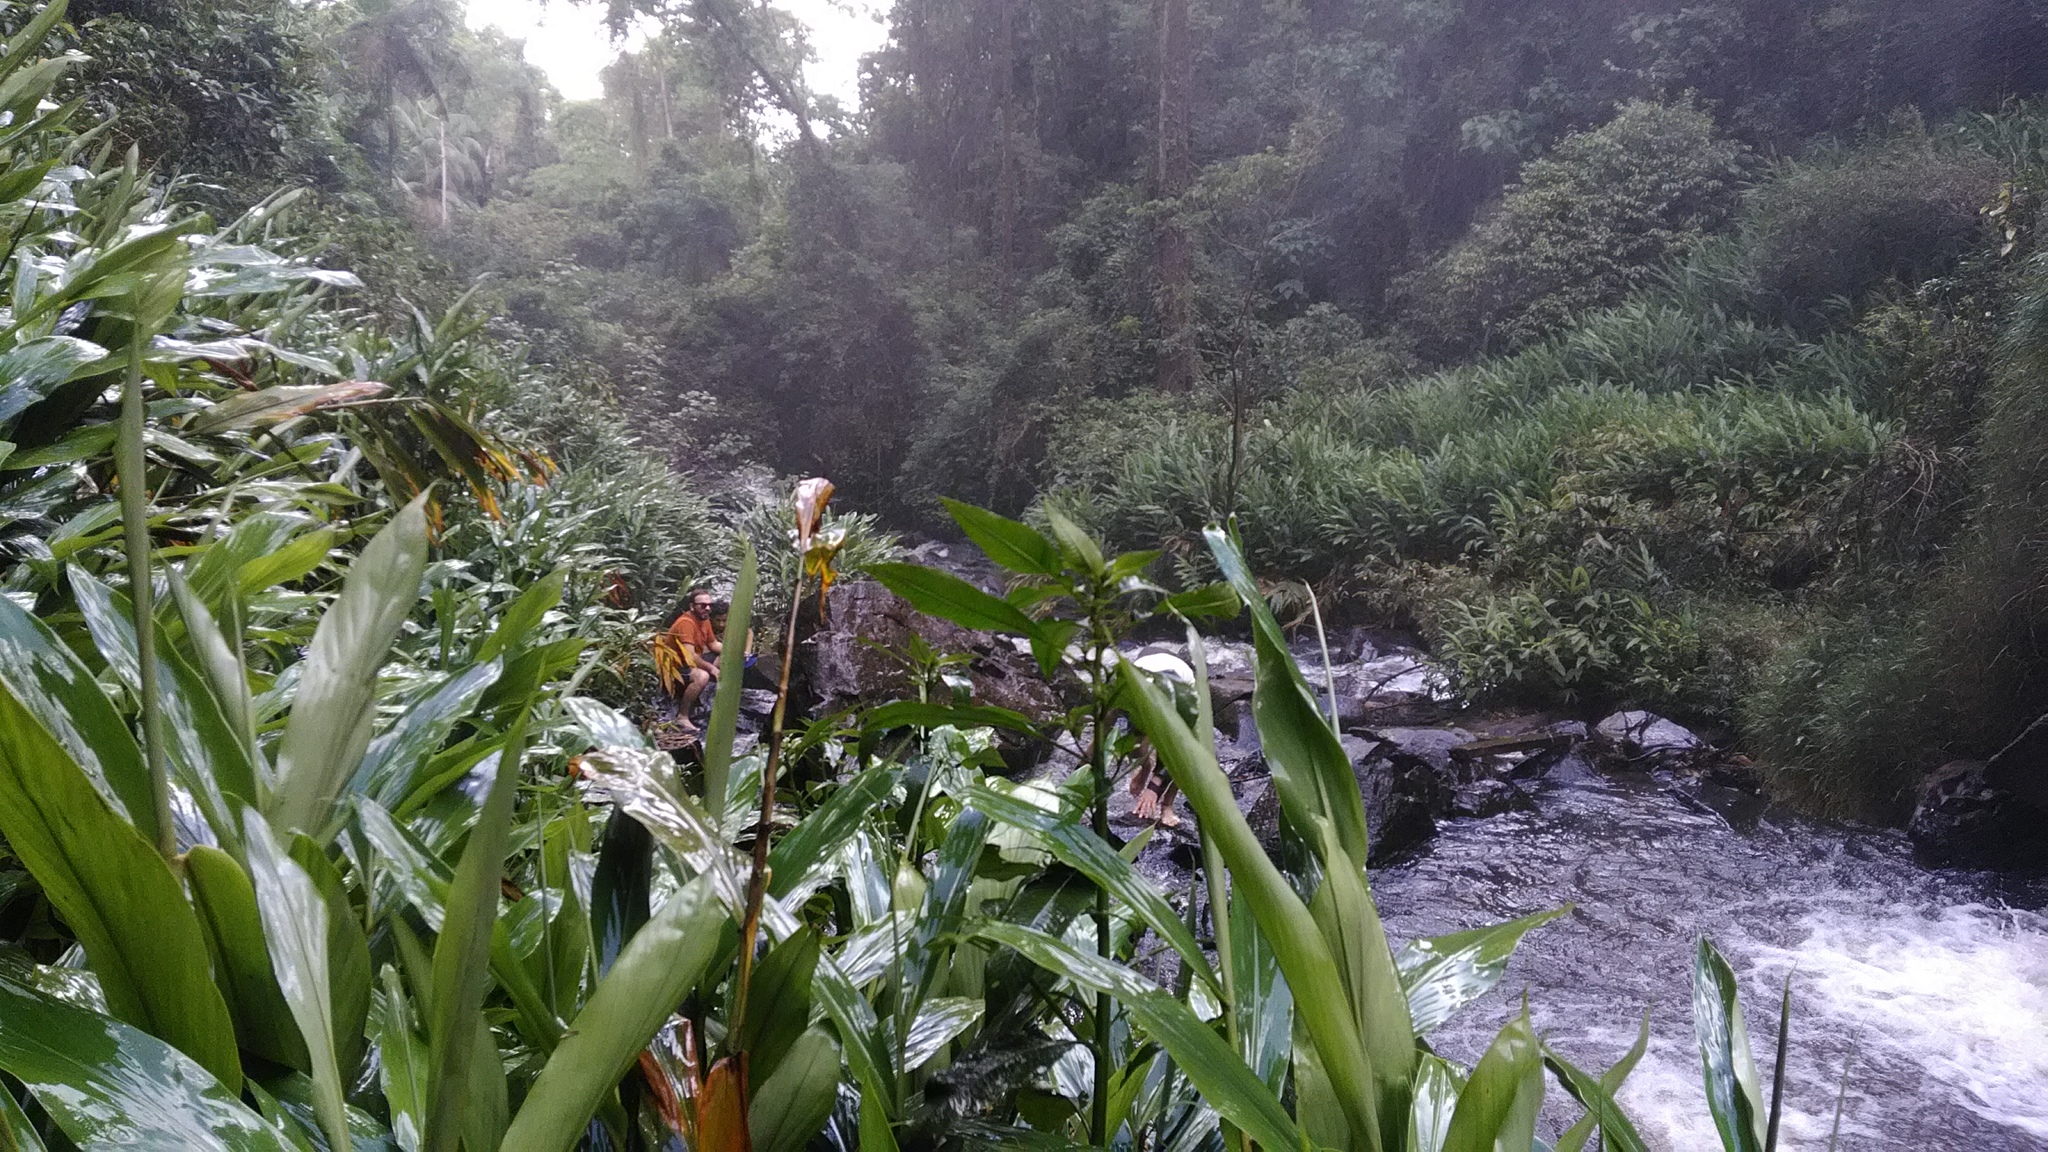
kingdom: Plantae
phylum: Tracheophyta
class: Liliopsida
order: Zingiberales
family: Zingiberaceae
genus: Hedychium
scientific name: Hedychium coronarium
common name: White garland-lily
